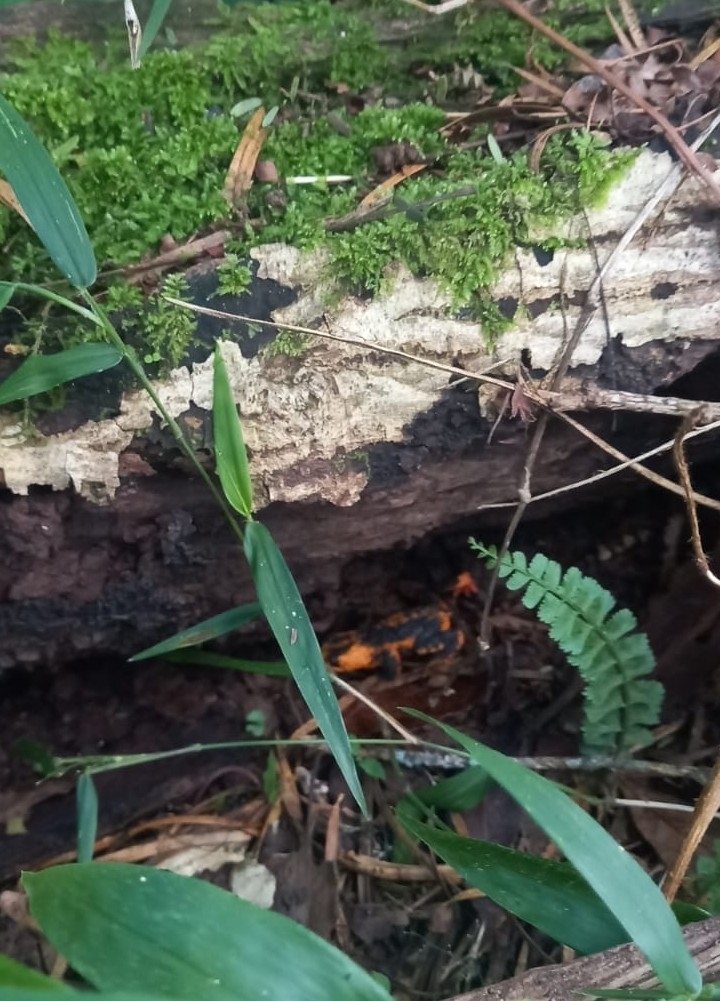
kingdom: Animalia
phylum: Chordata
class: Amphibia
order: Anura
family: Bufonidae
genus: Melanophryniscus
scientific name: Melanophryniscus rubriventris
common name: Red bellied toad
